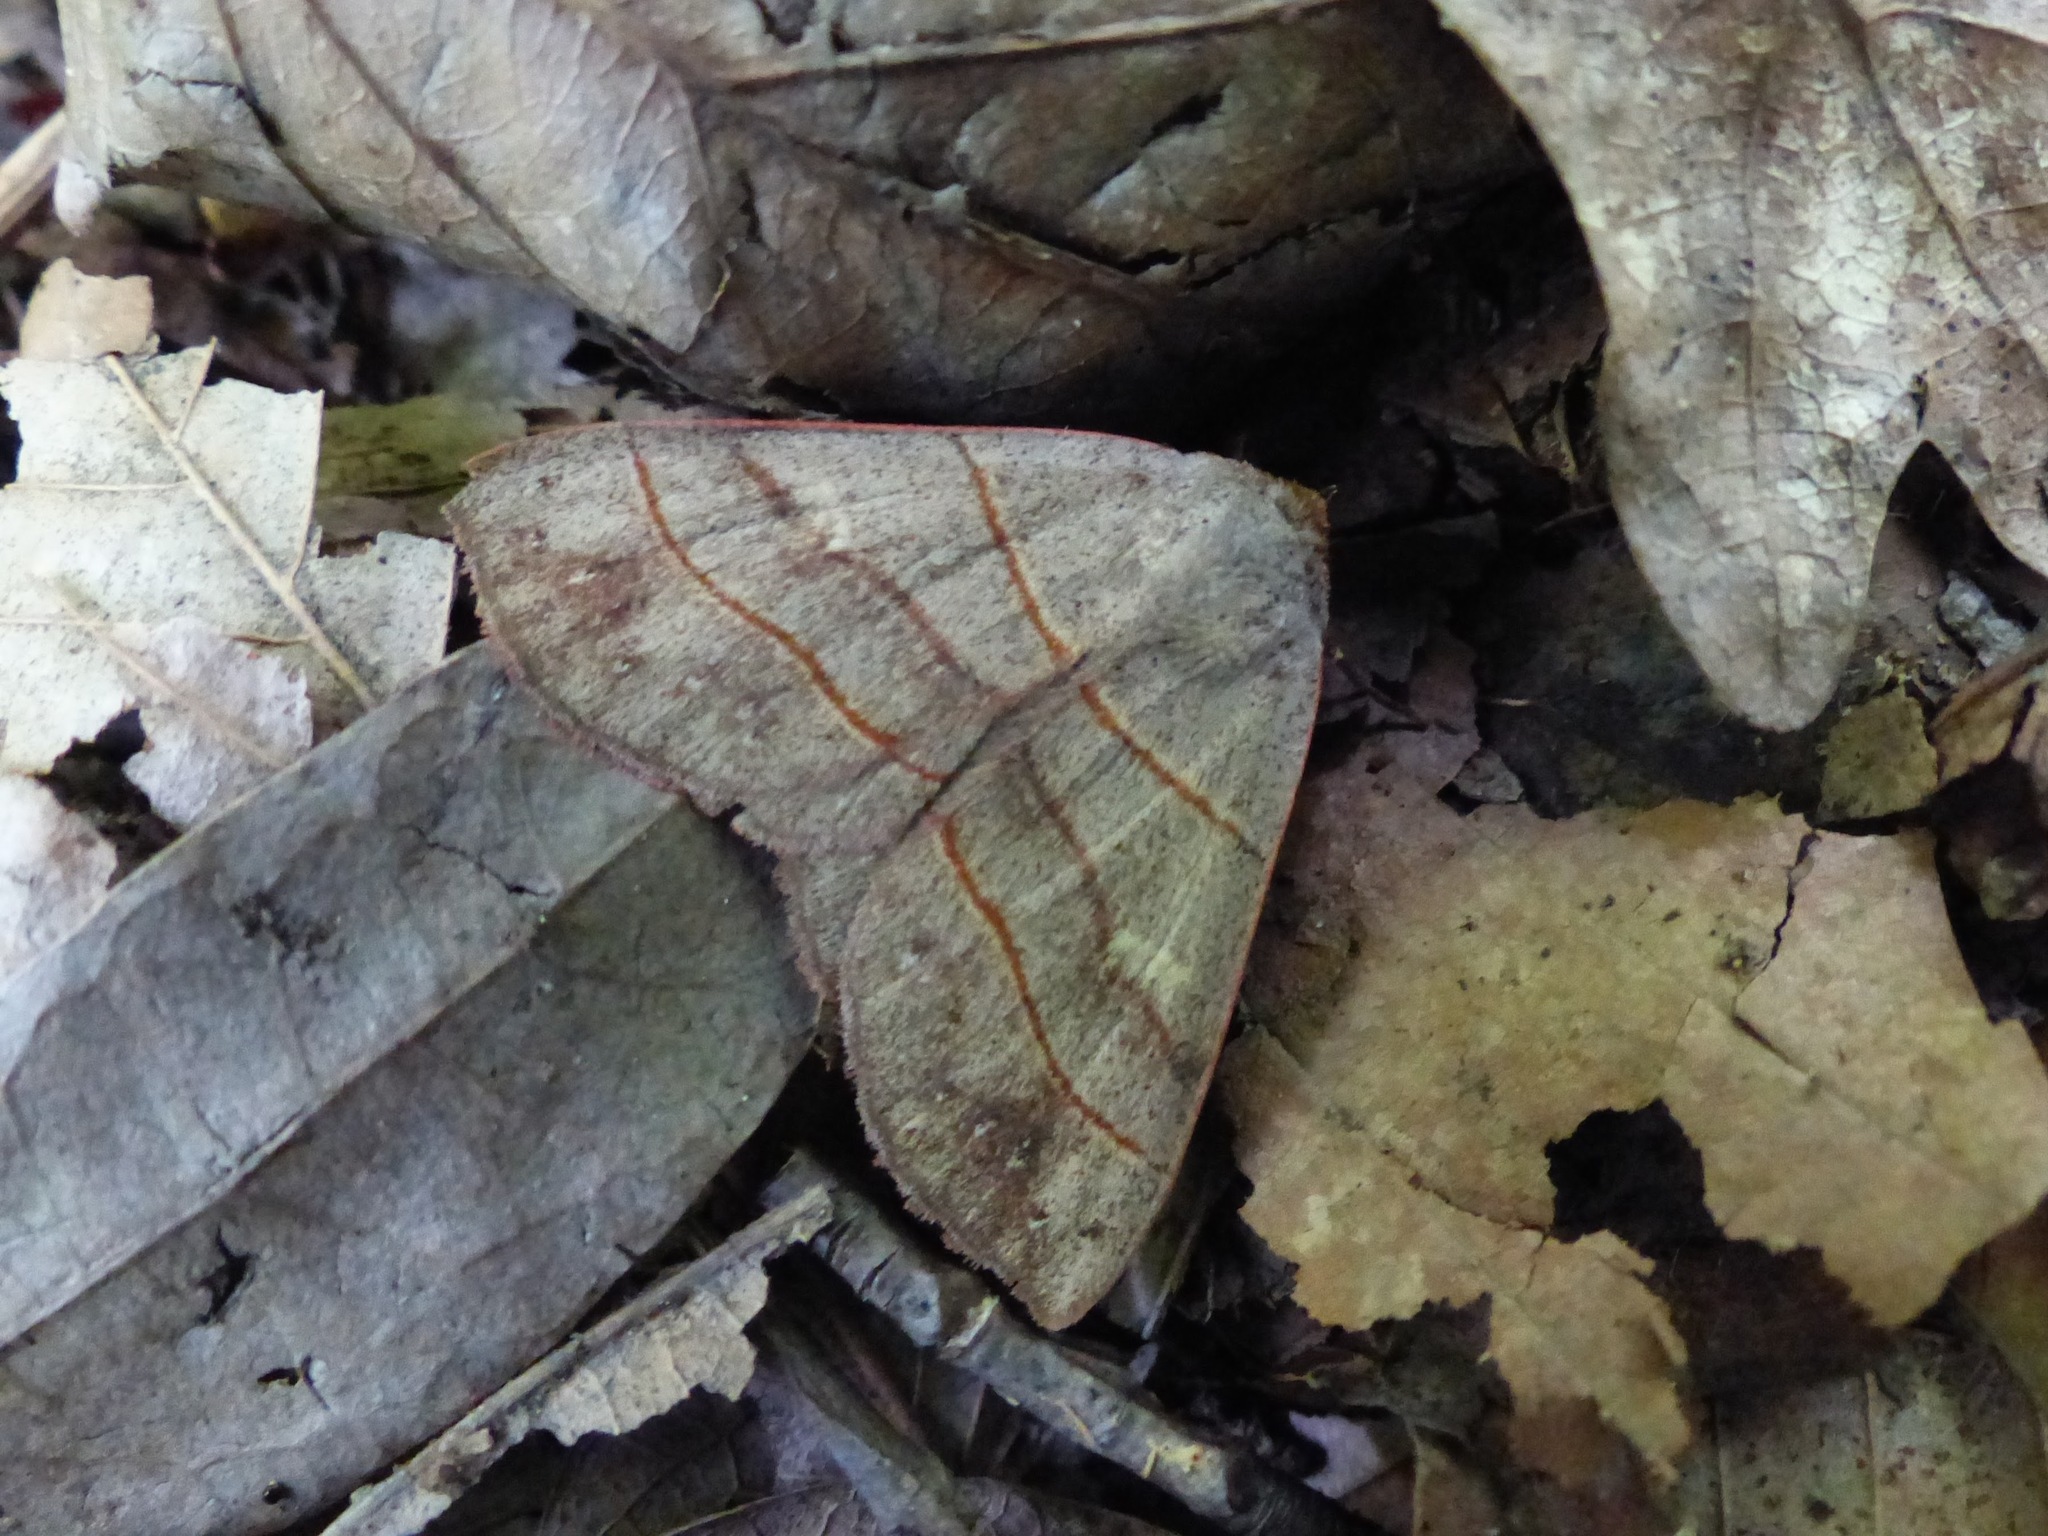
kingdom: Animalia
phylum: Arthropoda
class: Insecta
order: Lepidoptera
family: Erebidae
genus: Panopoda
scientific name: Panopoda rufimargo
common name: Red-lined panopoda moth
